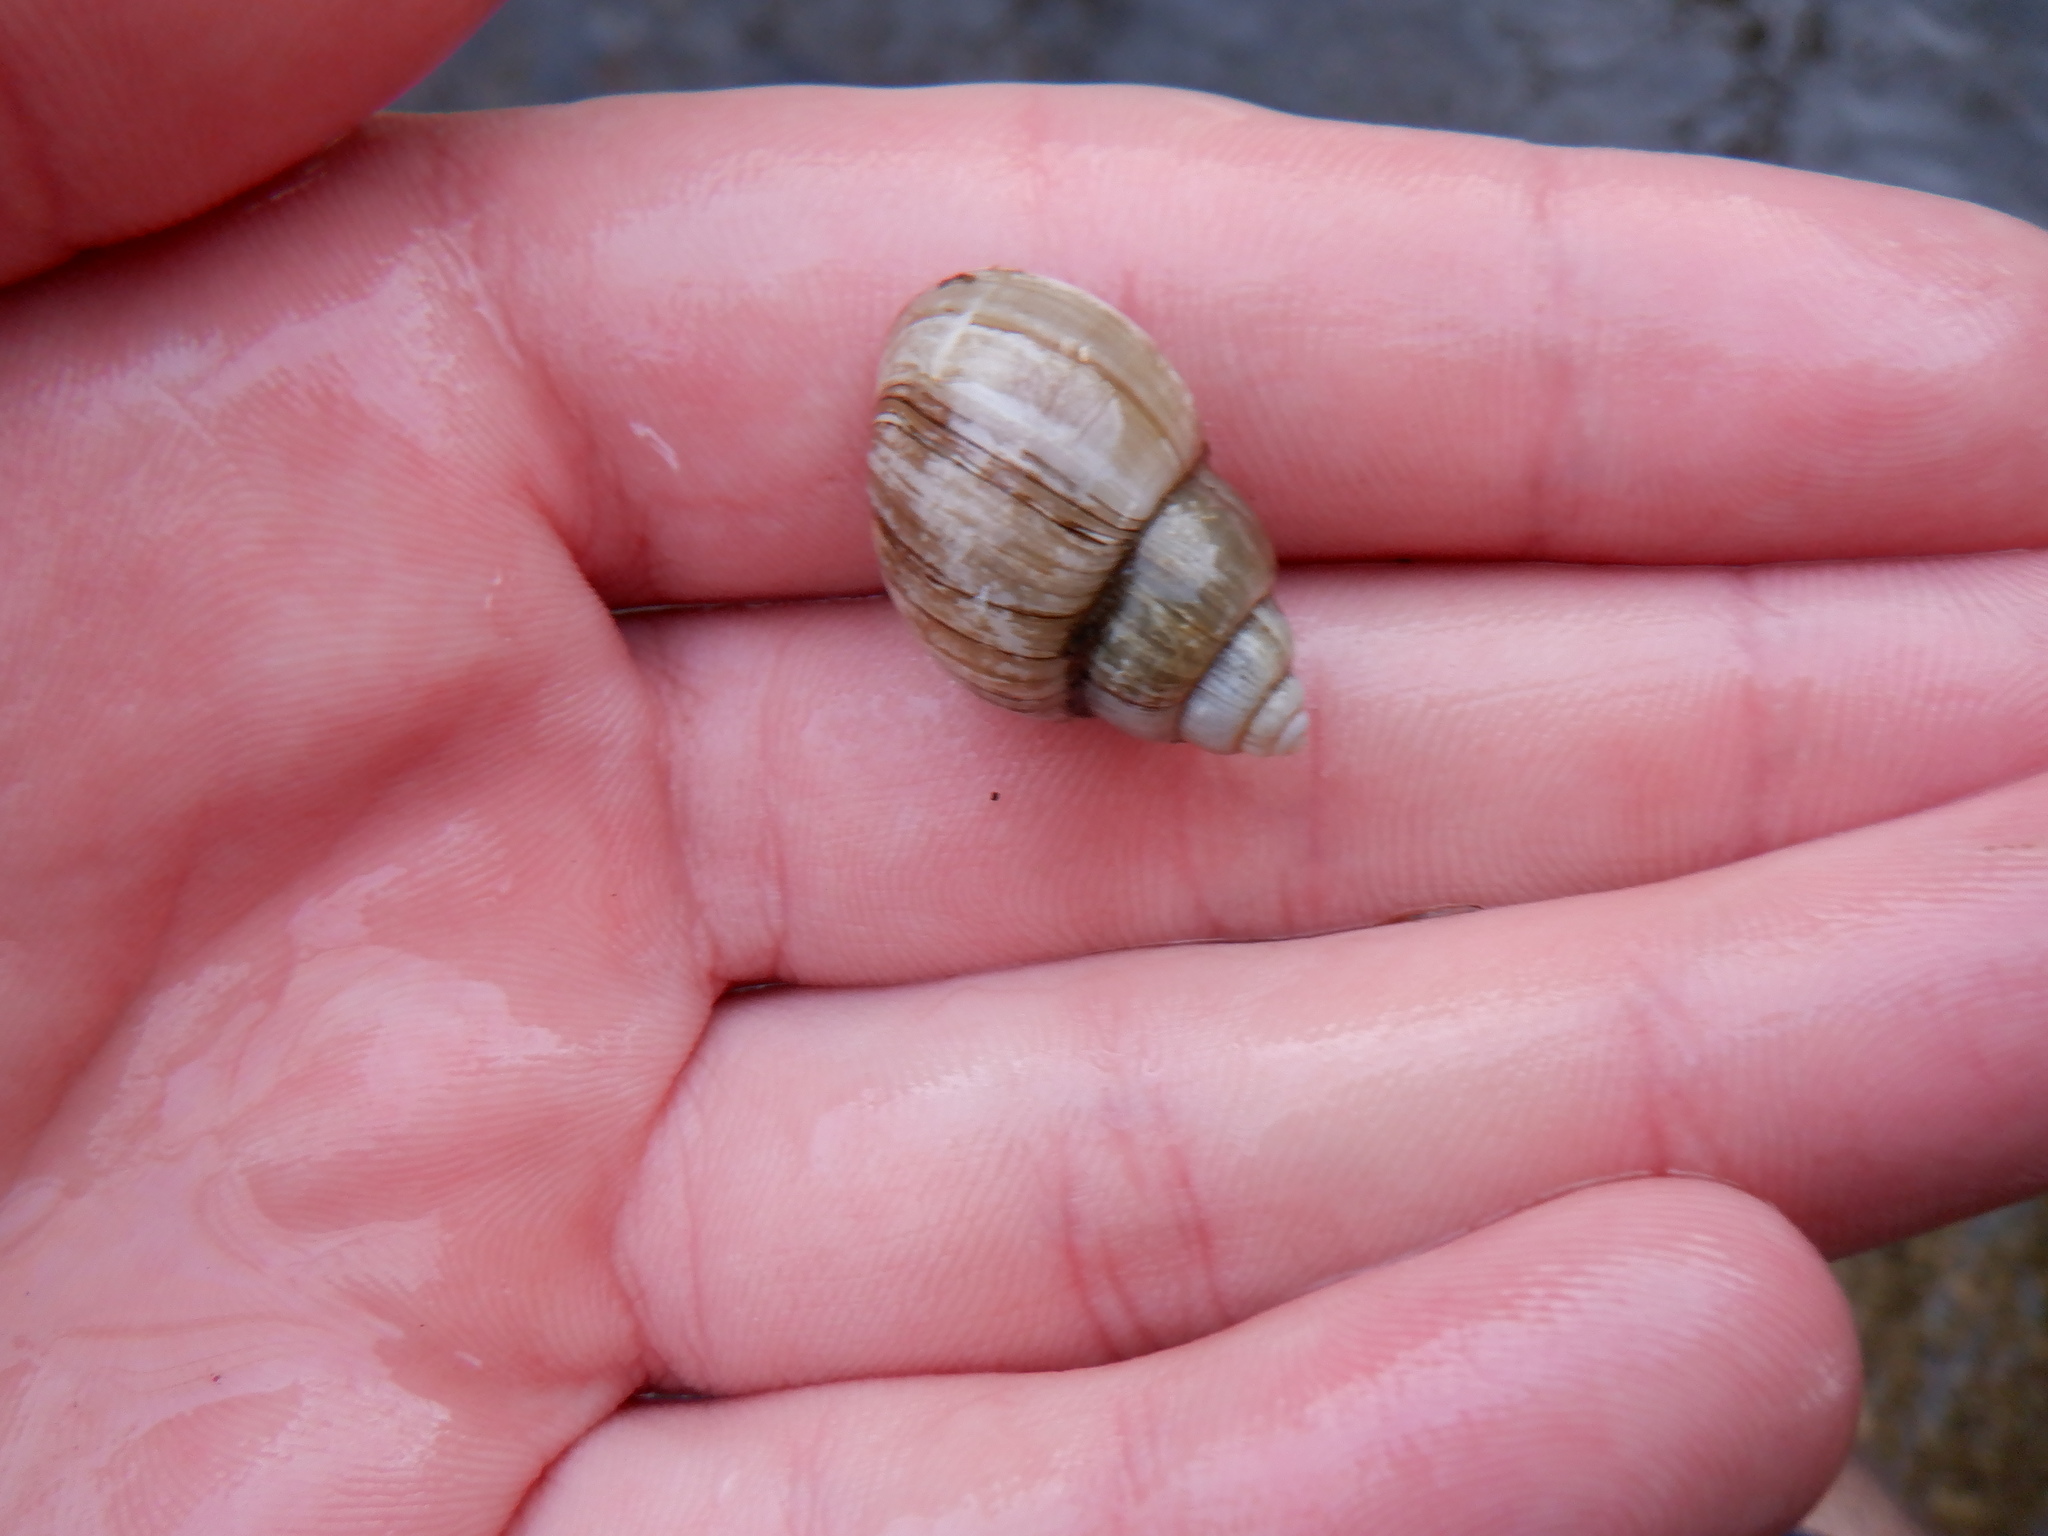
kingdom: Animalia
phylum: Mollusca
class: Gastropoda
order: Architaenioglossa
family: Viviparidae
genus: Cipangopaludina
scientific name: Cipangopaludina chinensis
